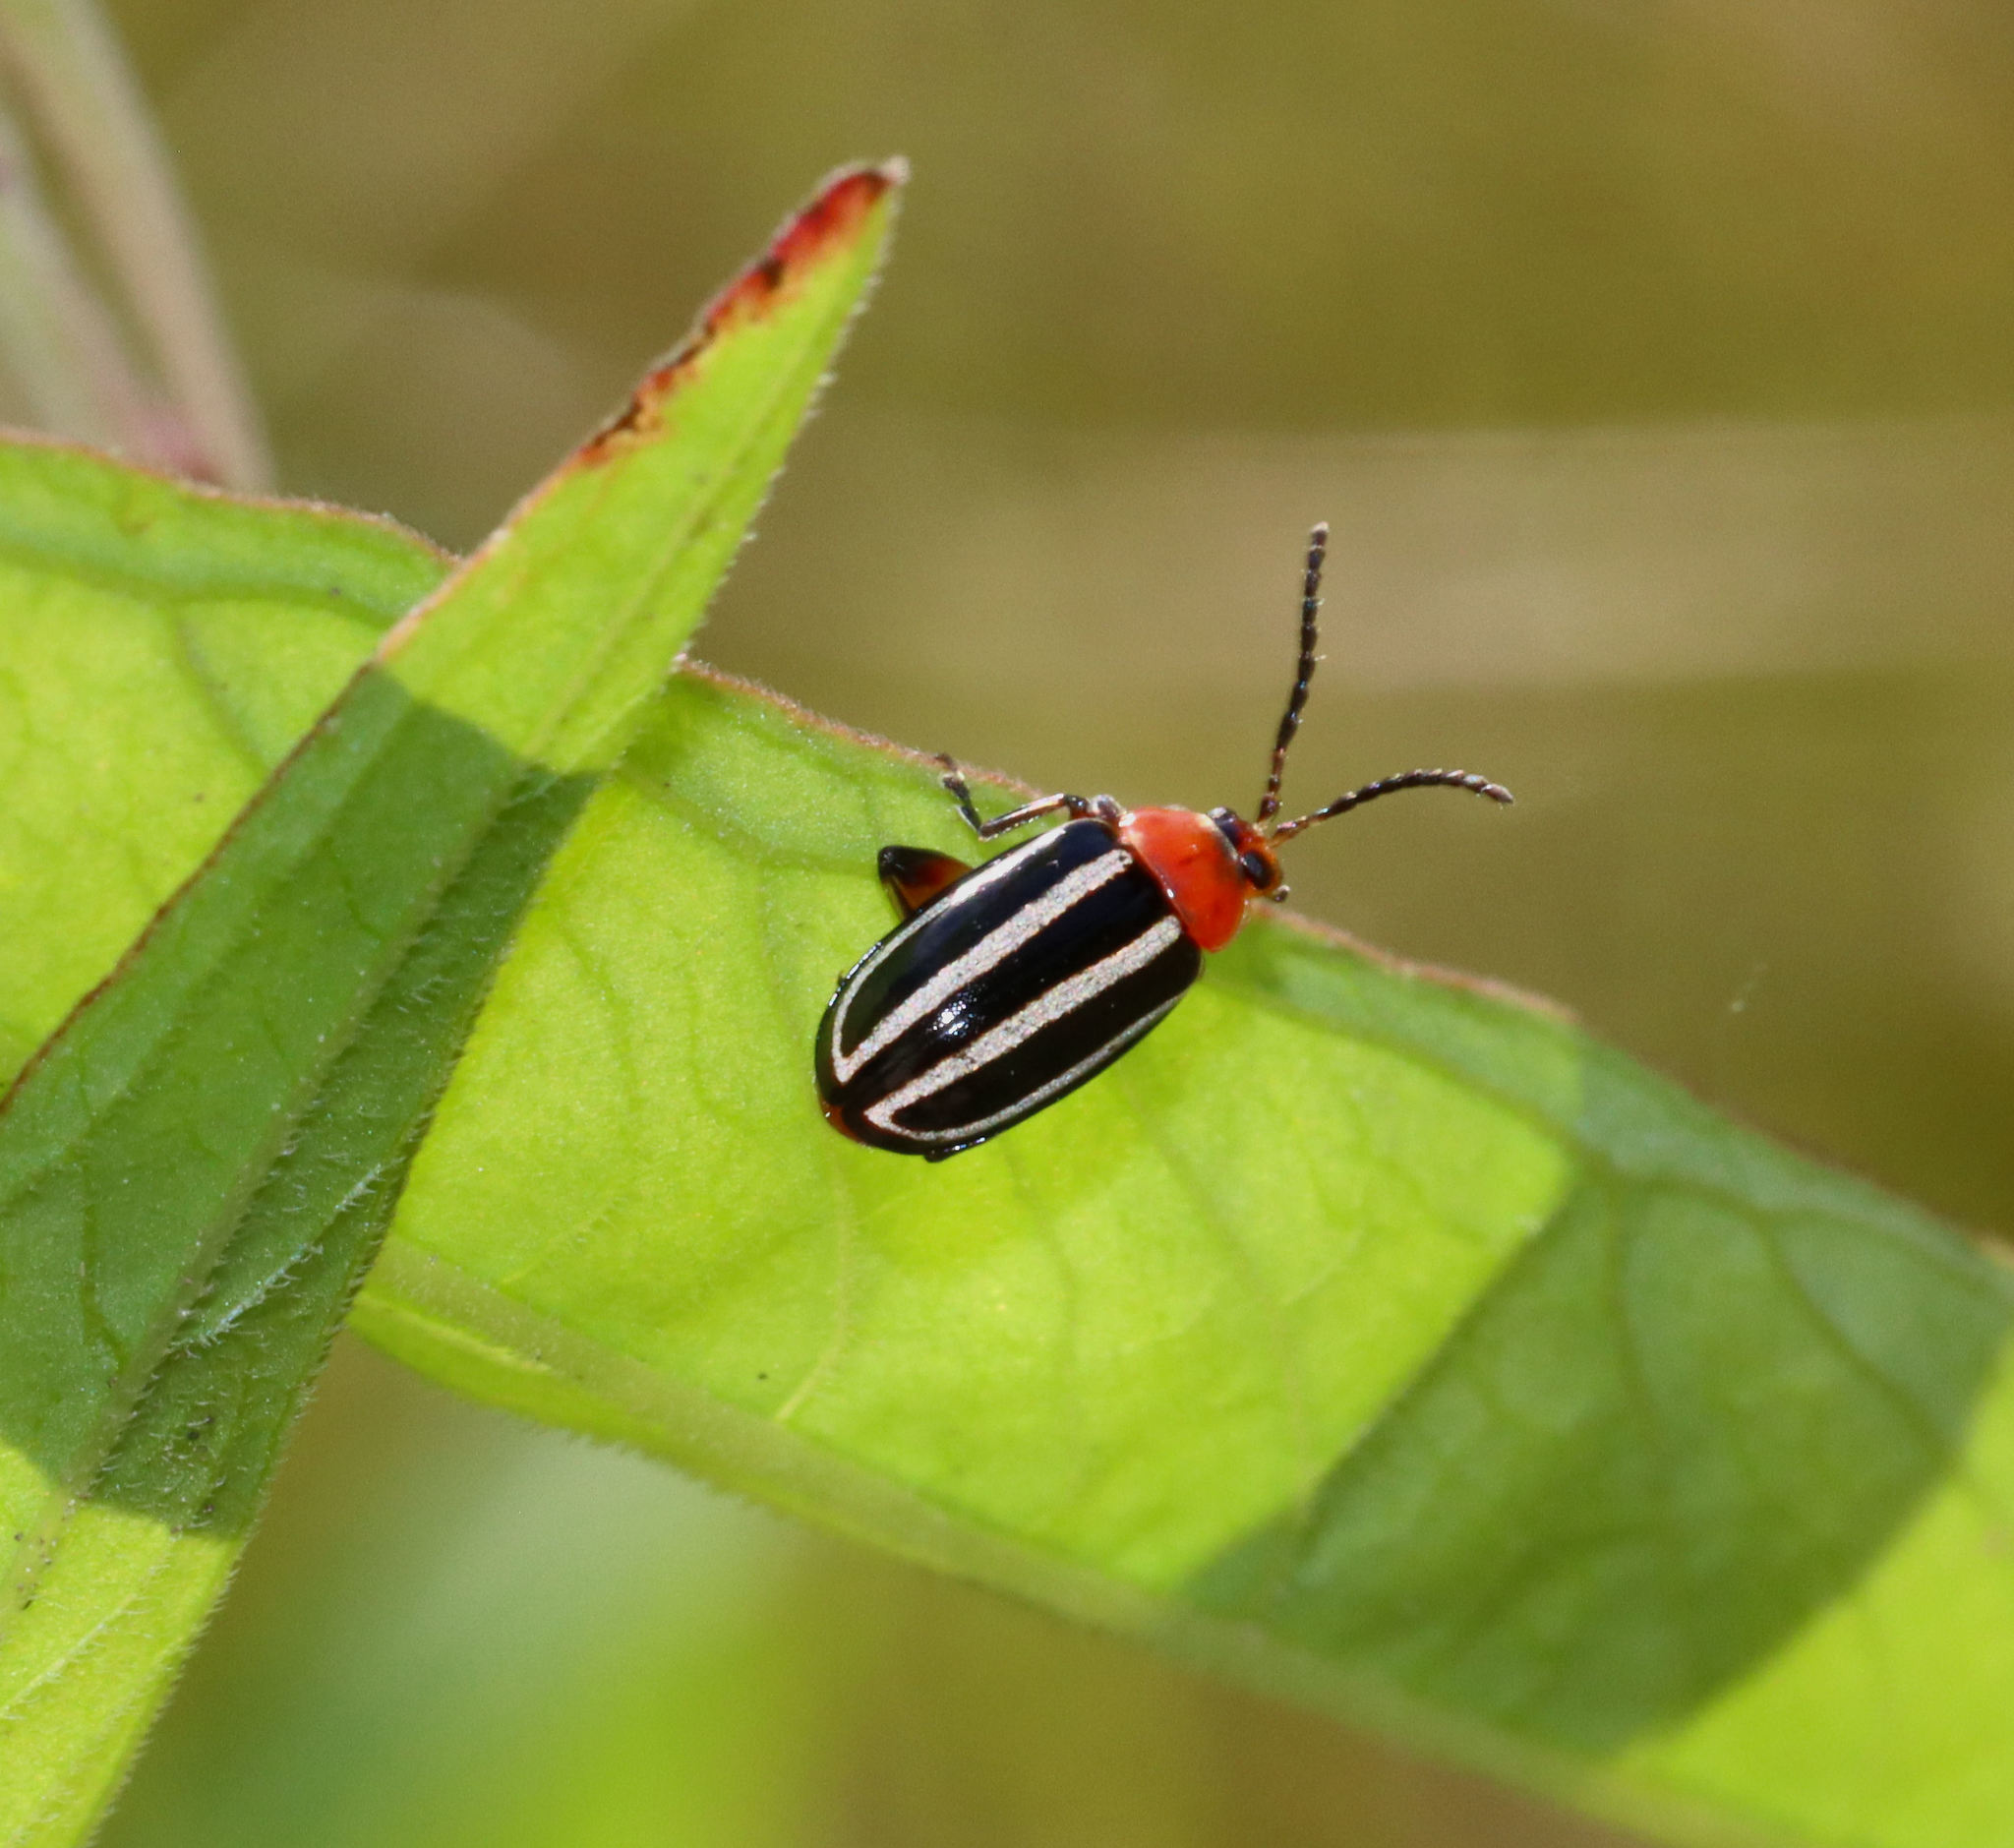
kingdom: Animalia
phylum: Arthropoda
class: Insecta
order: Coleoptera
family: Chrysomelidae
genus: Disonycha
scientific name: Disonycha glabrata
